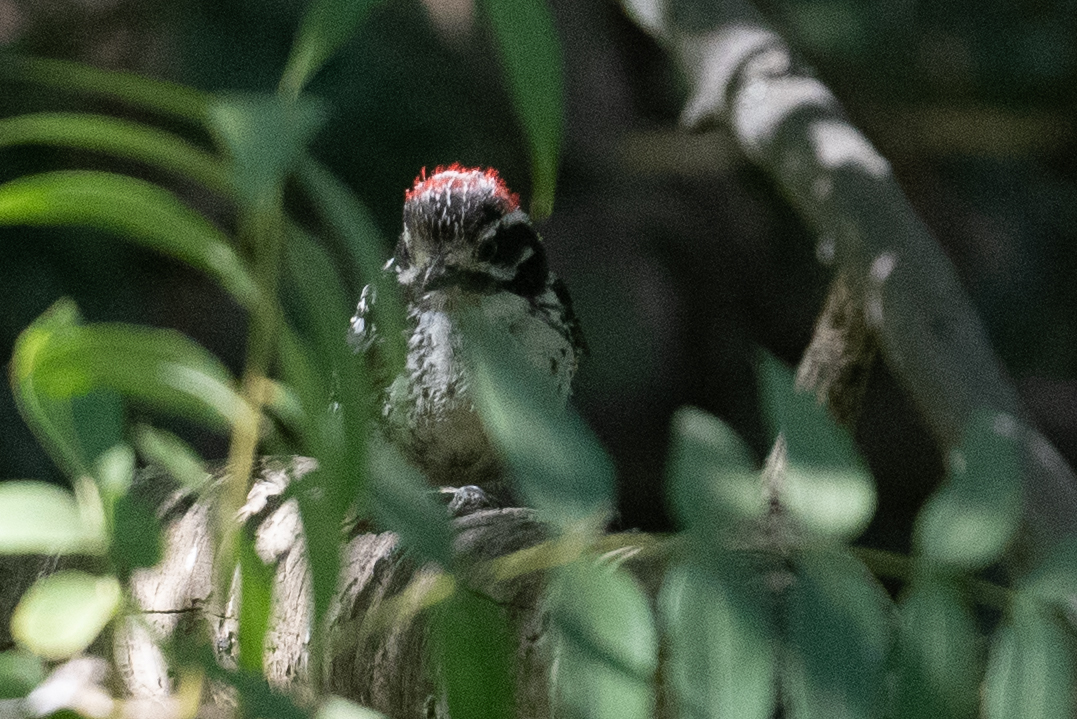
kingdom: Animalia
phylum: Chordata
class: Aves
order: Piciformes
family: Picidae
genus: Dryobates
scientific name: Dryobates nuttallii
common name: Nuttall's woodpecker
